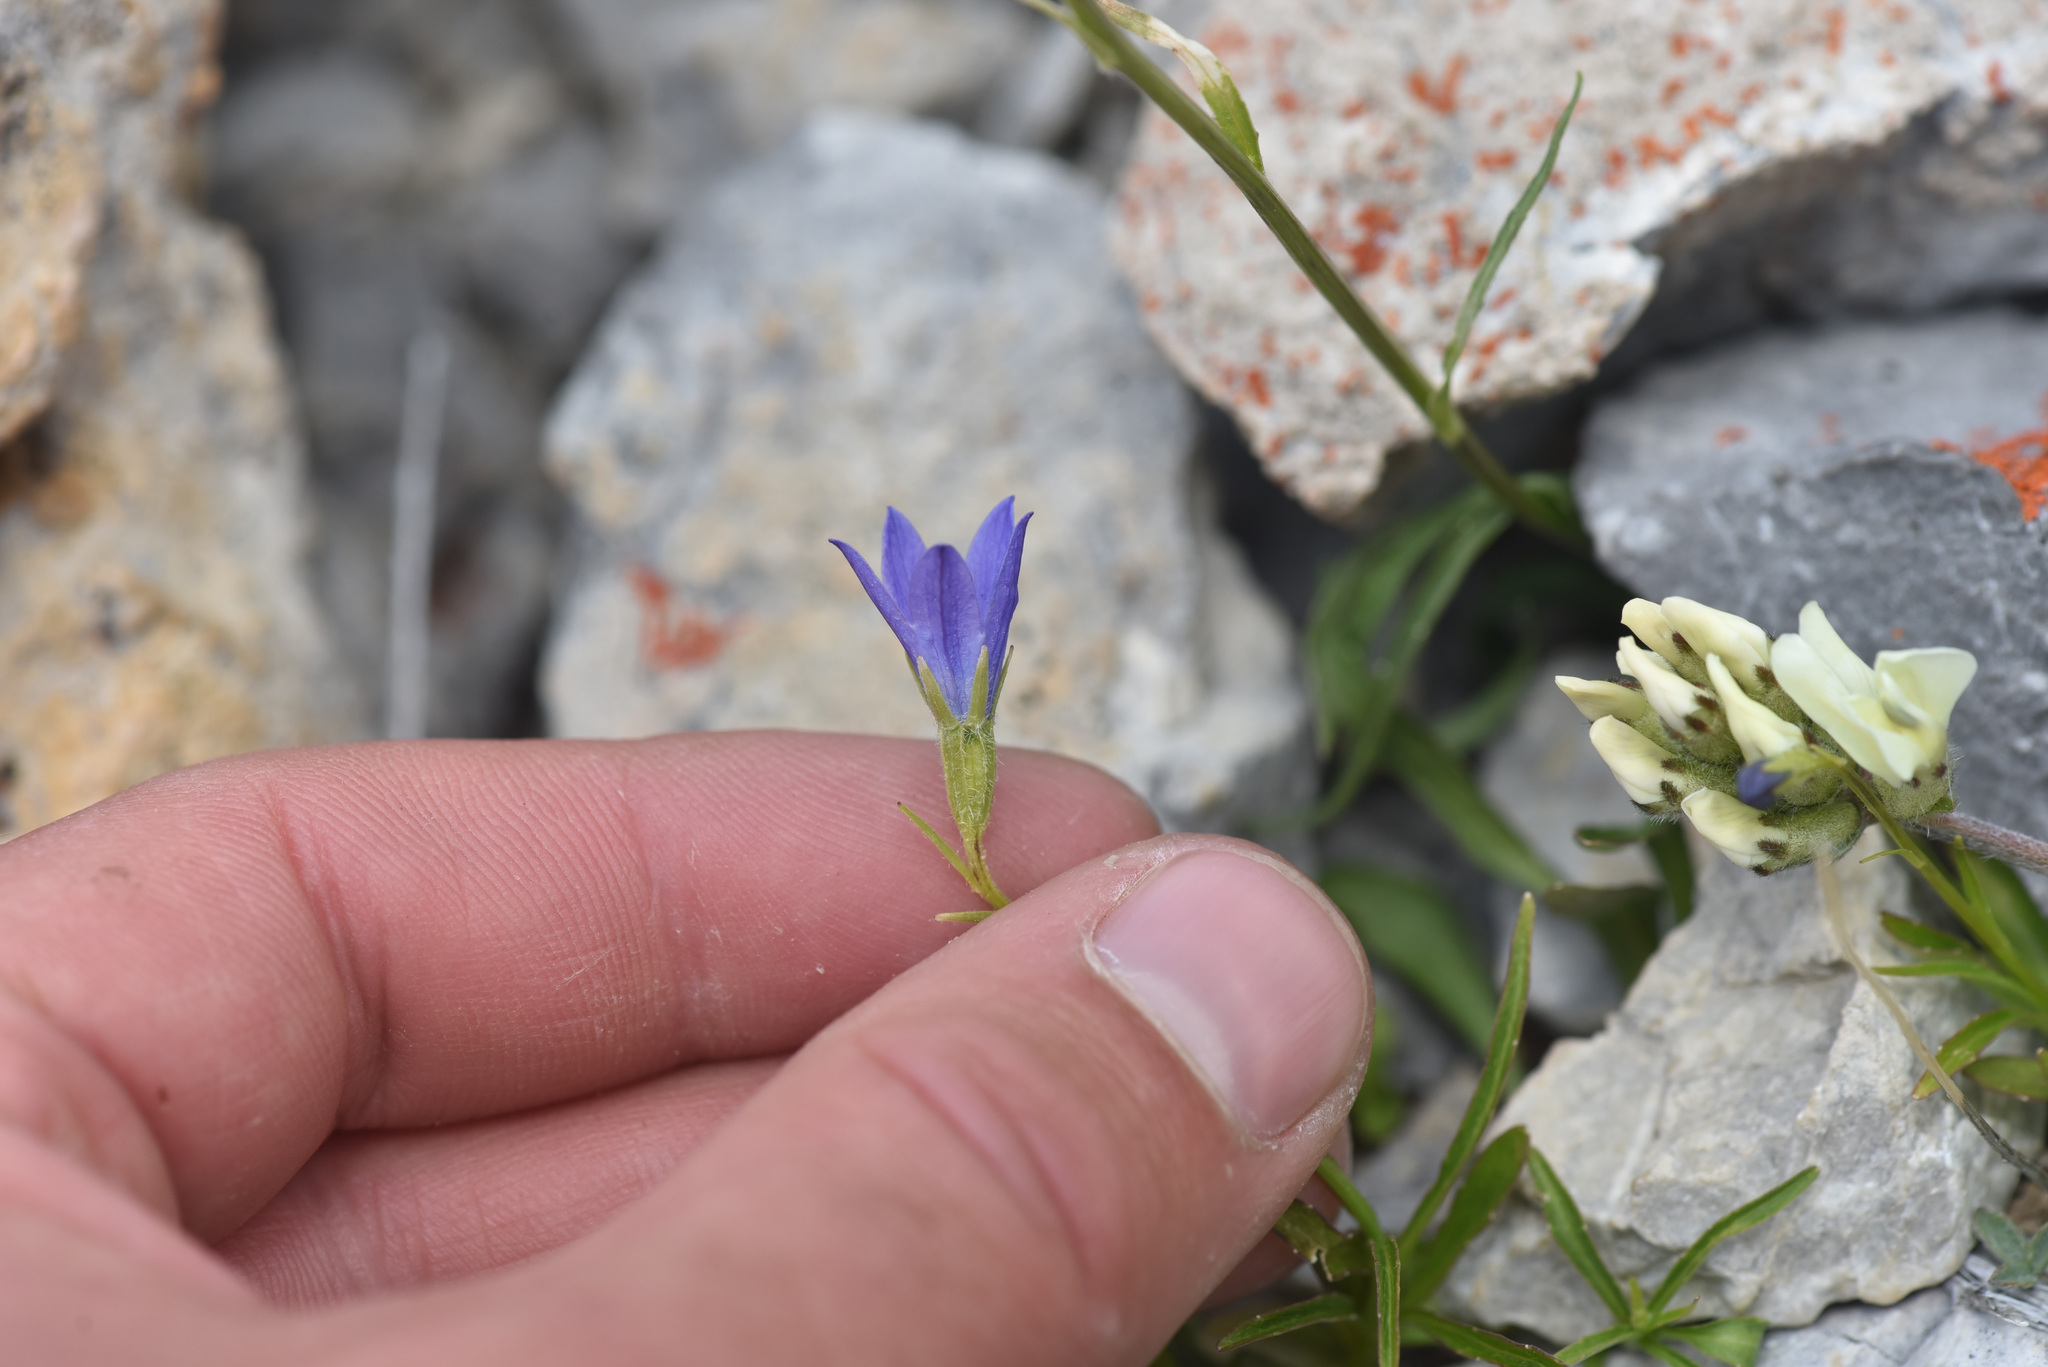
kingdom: Plantae
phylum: Tracheophyta
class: Magnoliopsida
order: Asterales
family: Campanulaceae
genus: Campanula
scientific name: Campanula uniflora
